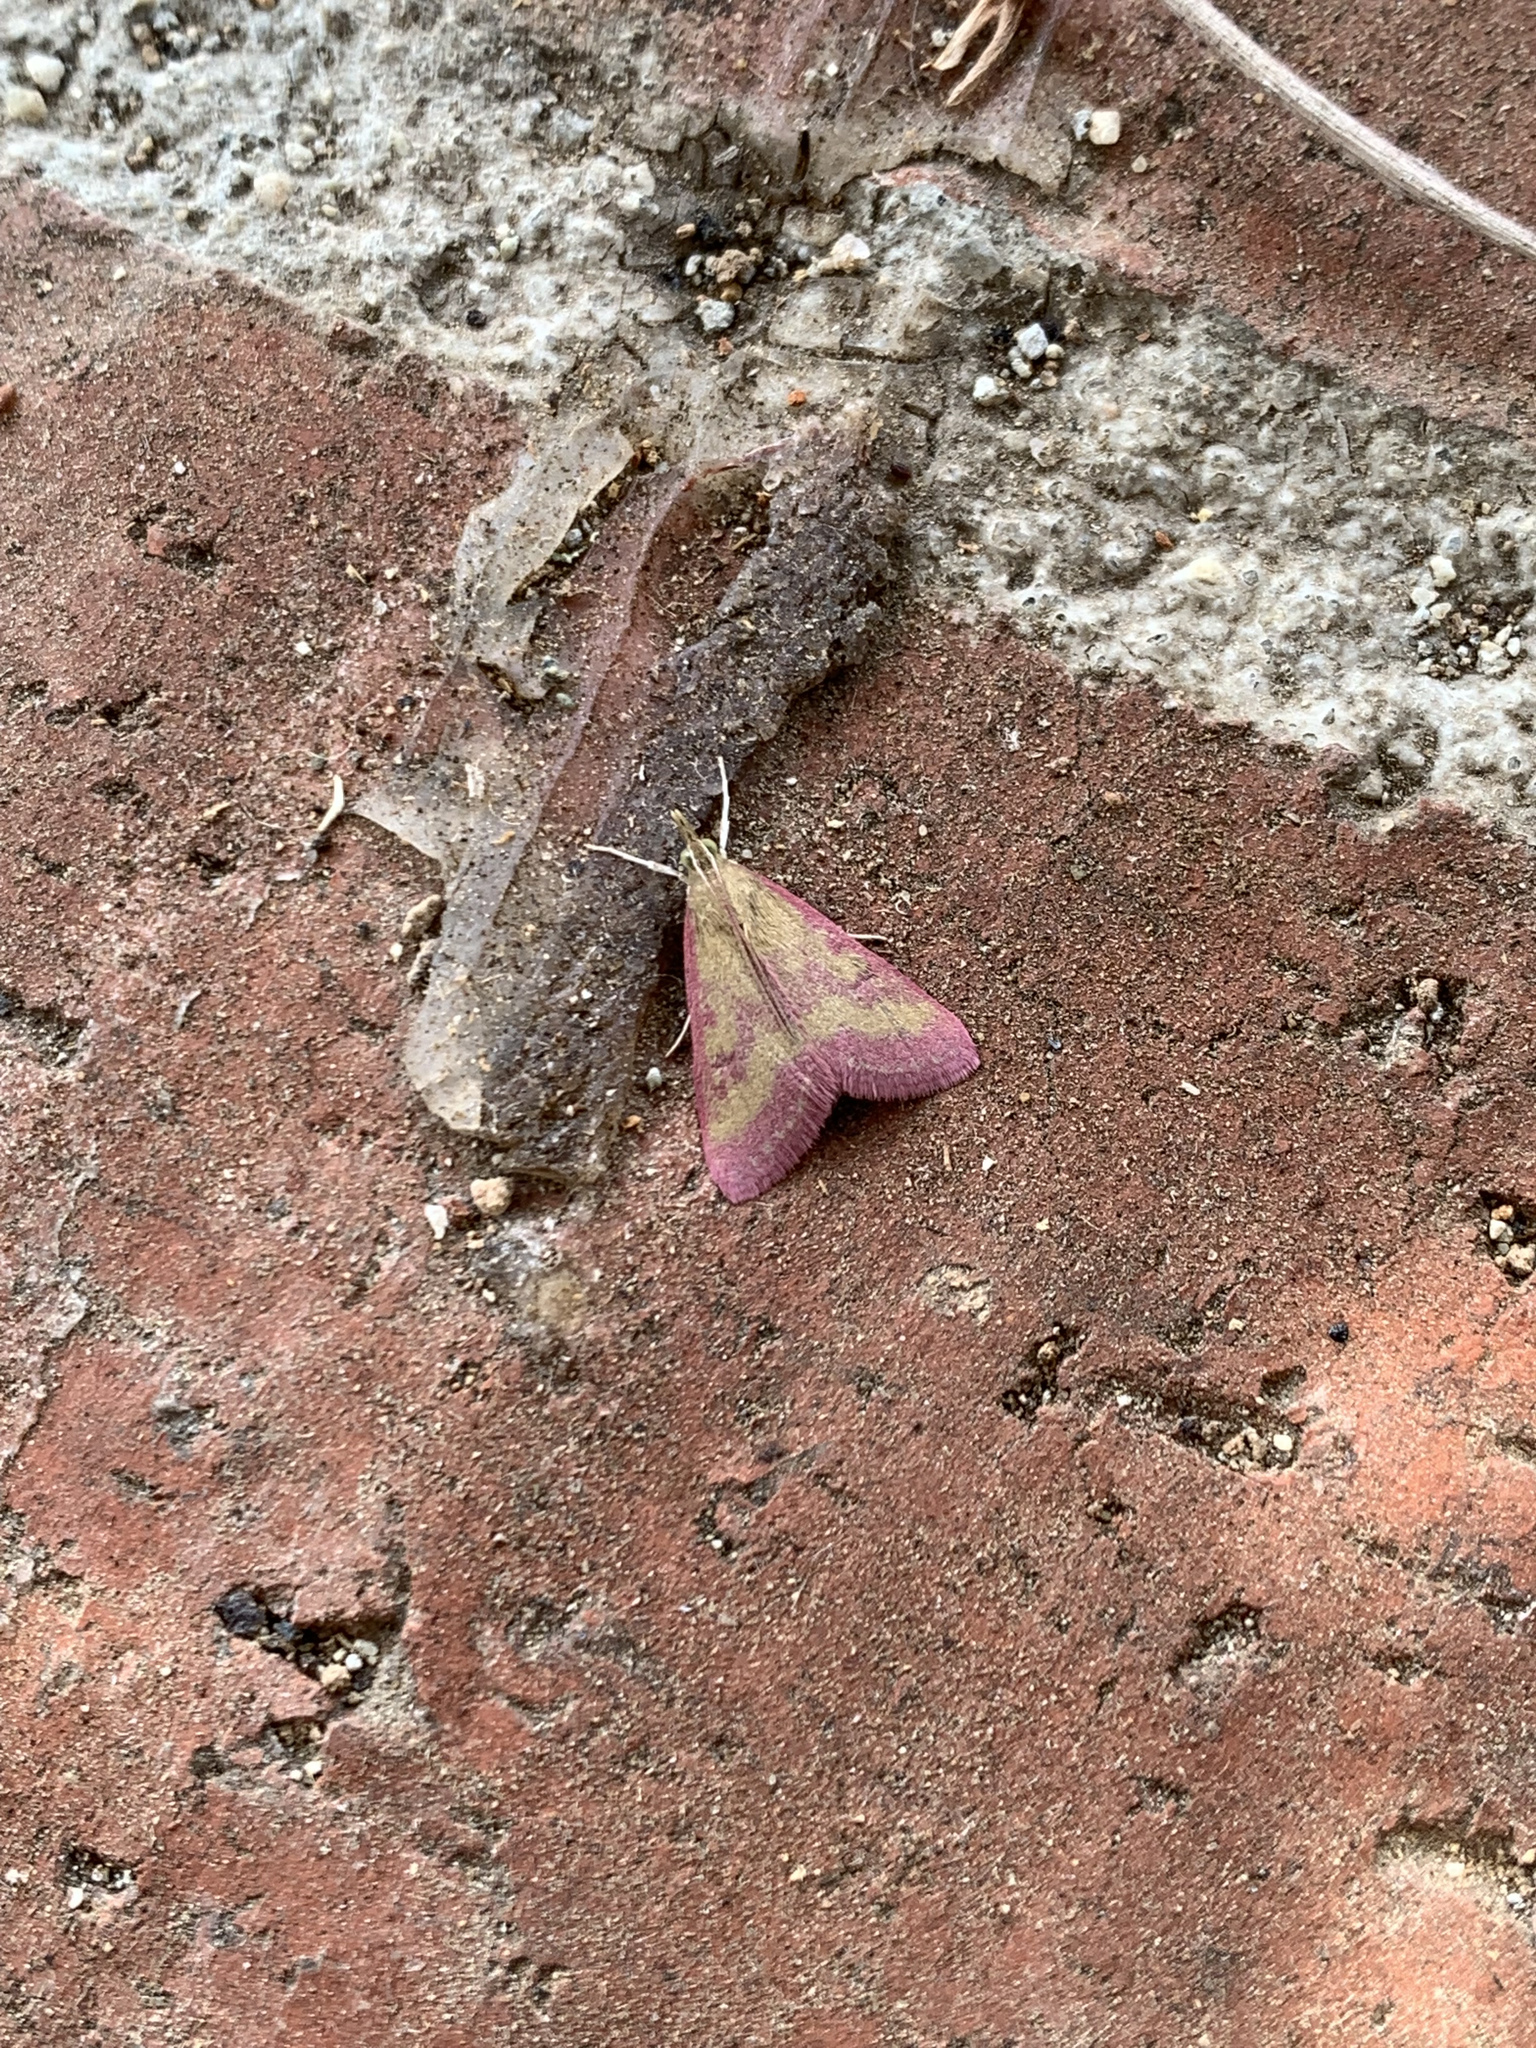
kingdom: Animalia
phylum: Arthropoda
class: Insecta
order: Lepidoptera
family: Crambidae
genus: Pyrausta
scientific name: Pyrausta laticlavia
